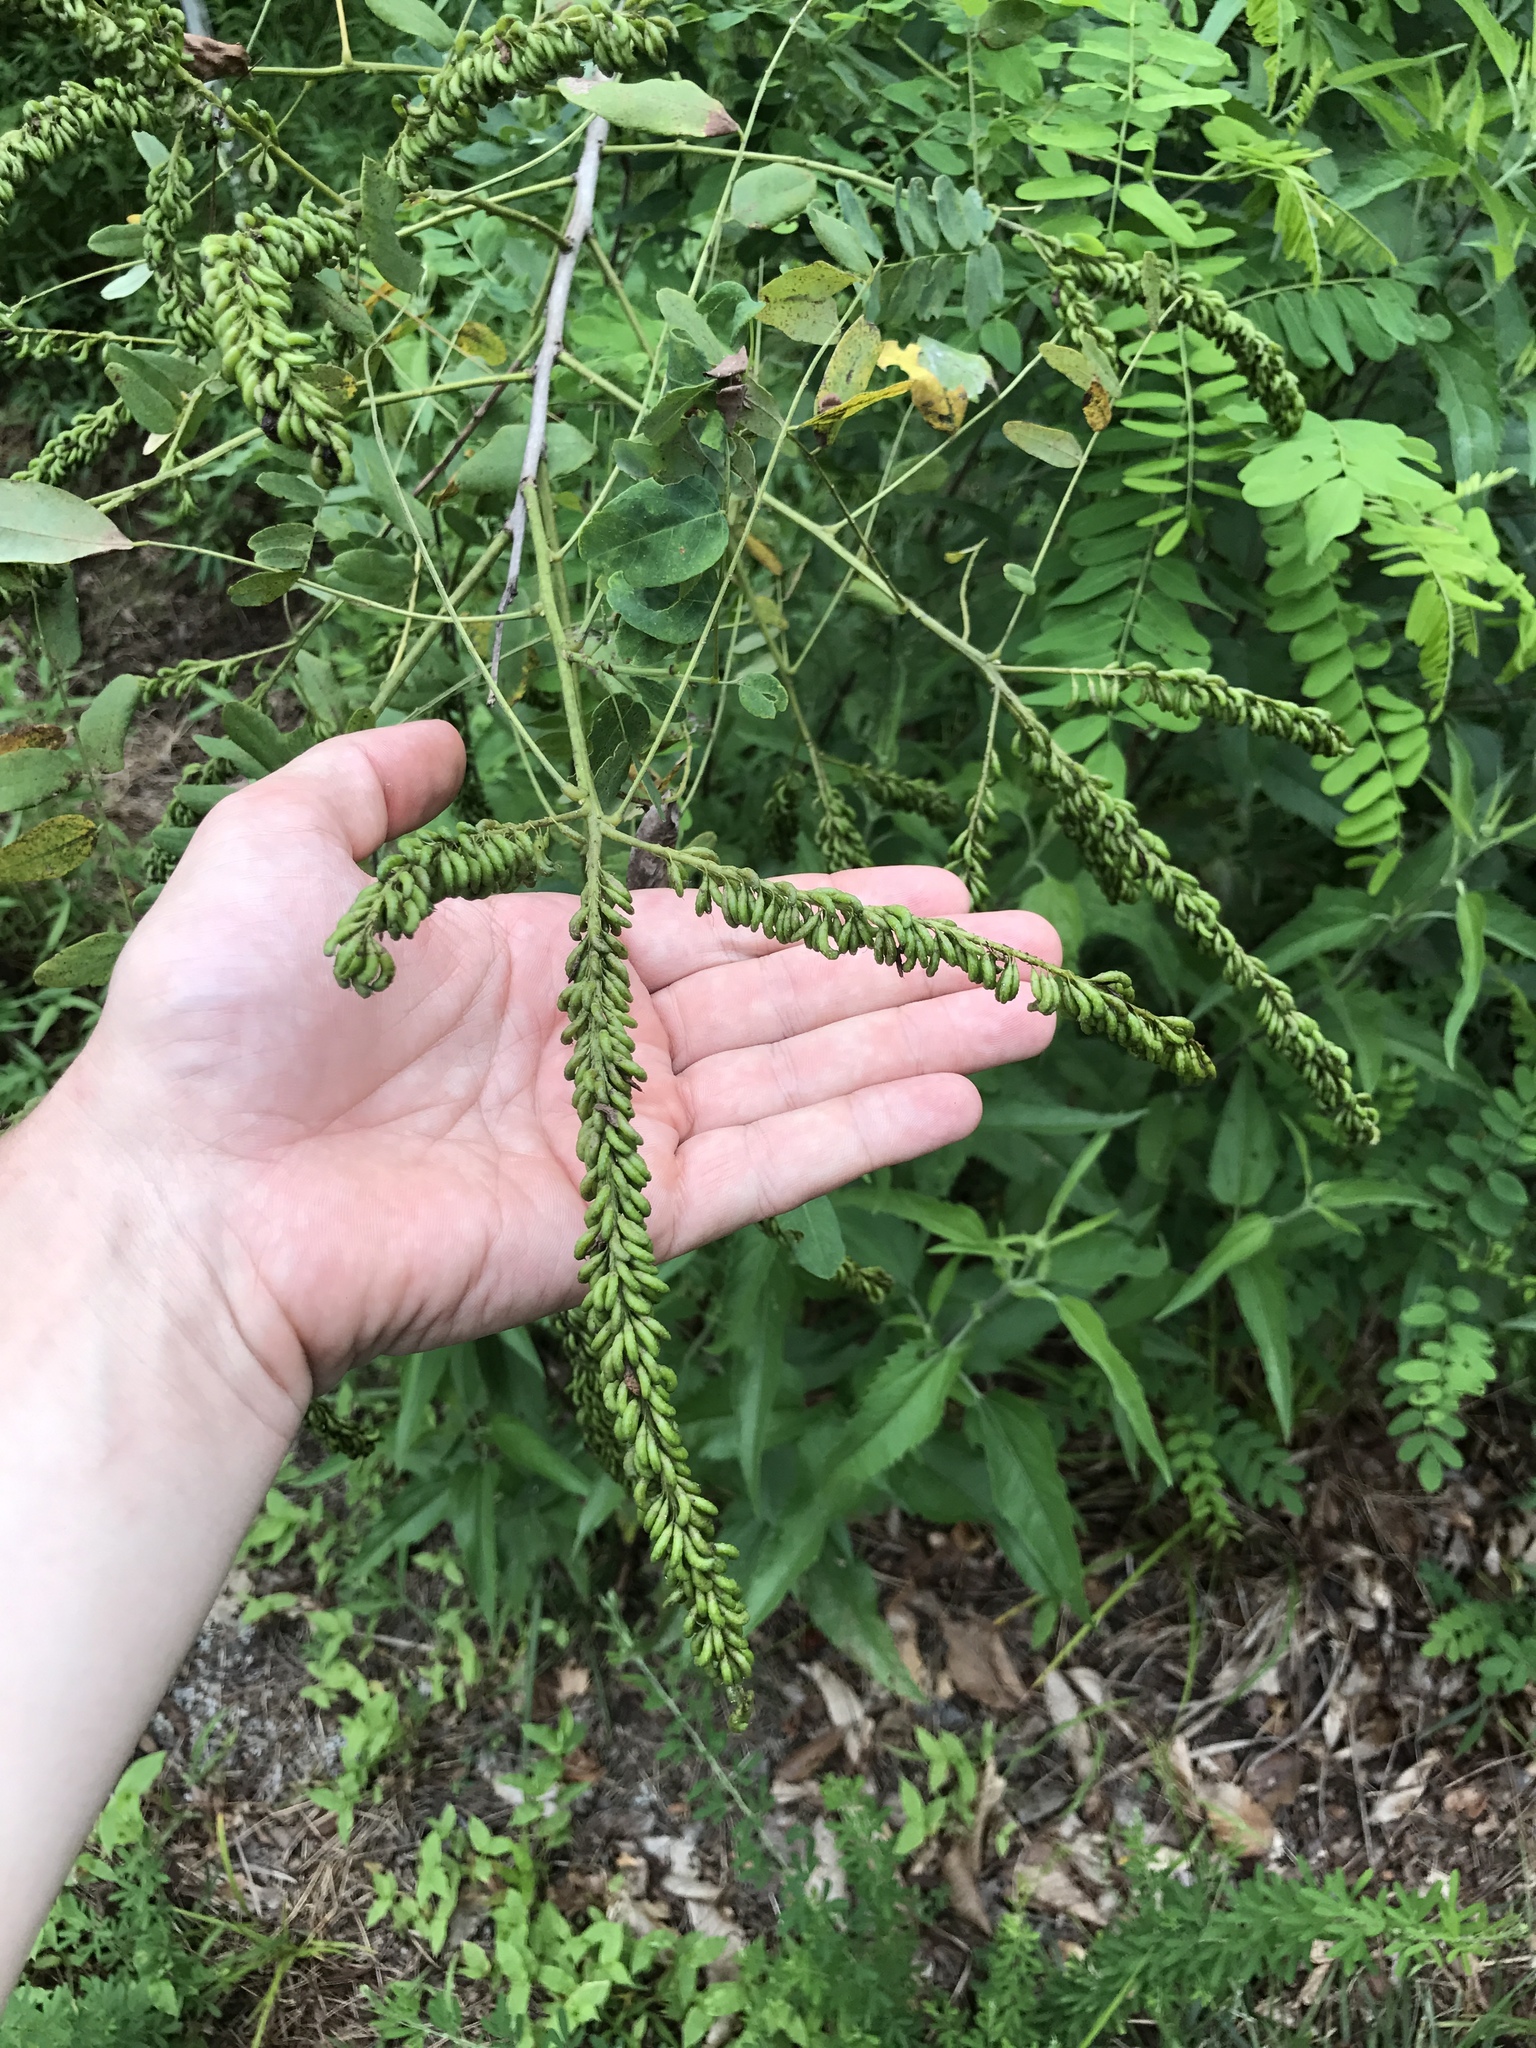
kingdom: Plantae
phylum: Tracheophyta
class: Magnoliopsida
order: Fabales
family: Fabaceae
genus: Amorpha
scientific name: Amorpha fruticosa
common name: False indigo
